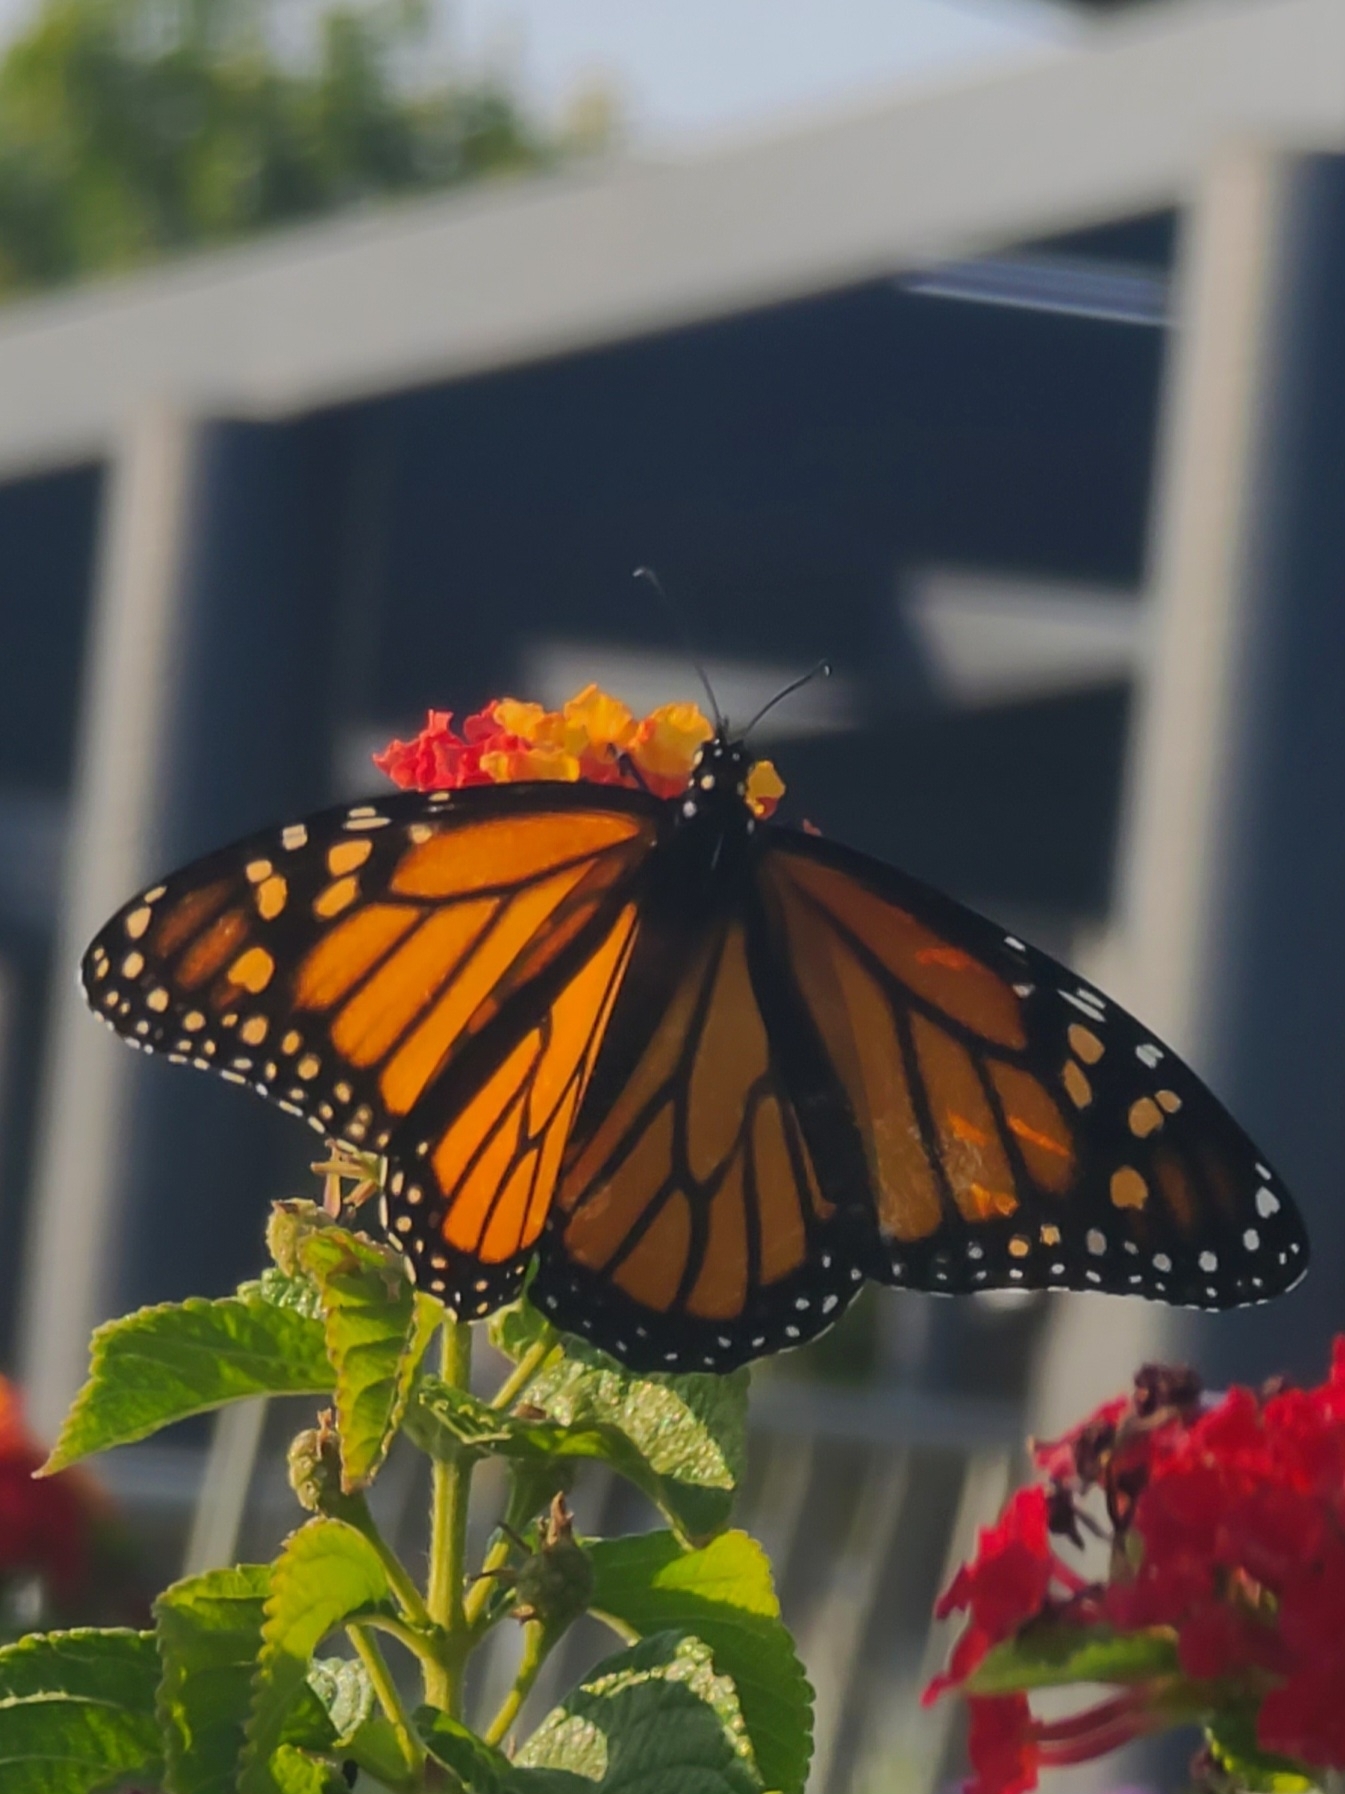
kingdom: Animalia
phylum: Arthropoda
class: Insecta
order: Lepidoptera
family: Nymphalidae
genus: Danaus
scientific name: Danaus plexippus
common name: Monarch
